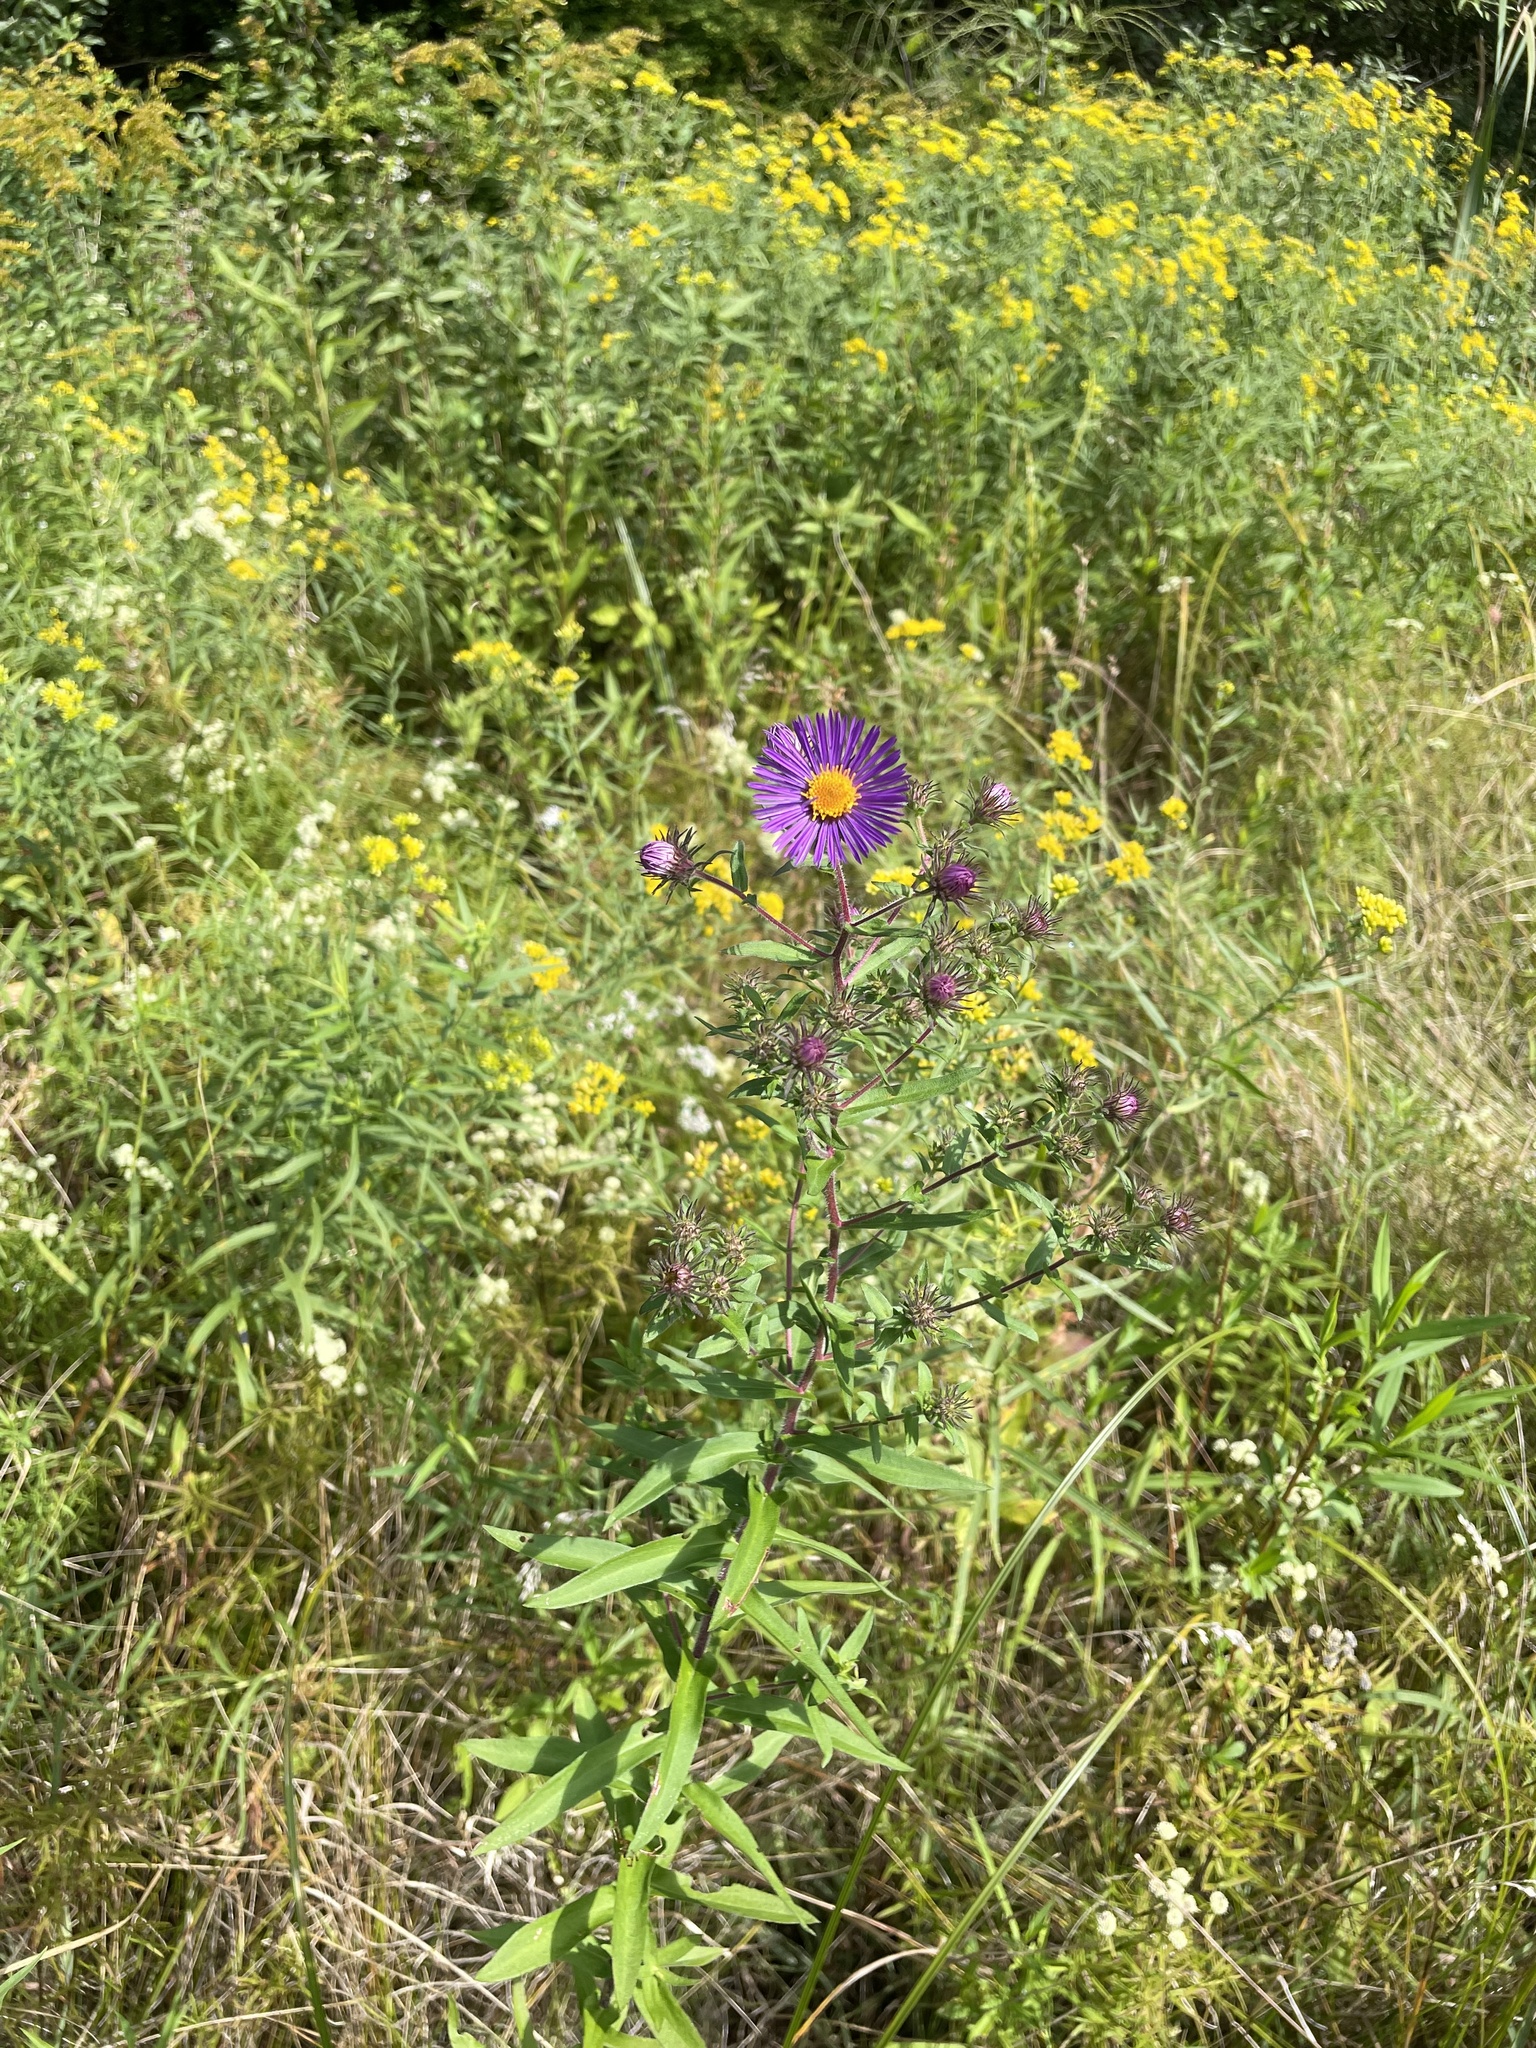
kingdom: Plantae
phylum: Tracheophyta
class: Magnoliopsida
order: Asterales
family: Asteraceae
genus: Symphyotrichum
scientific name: Symphyotrichum novae-angliae
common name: Michaelmas daisy
